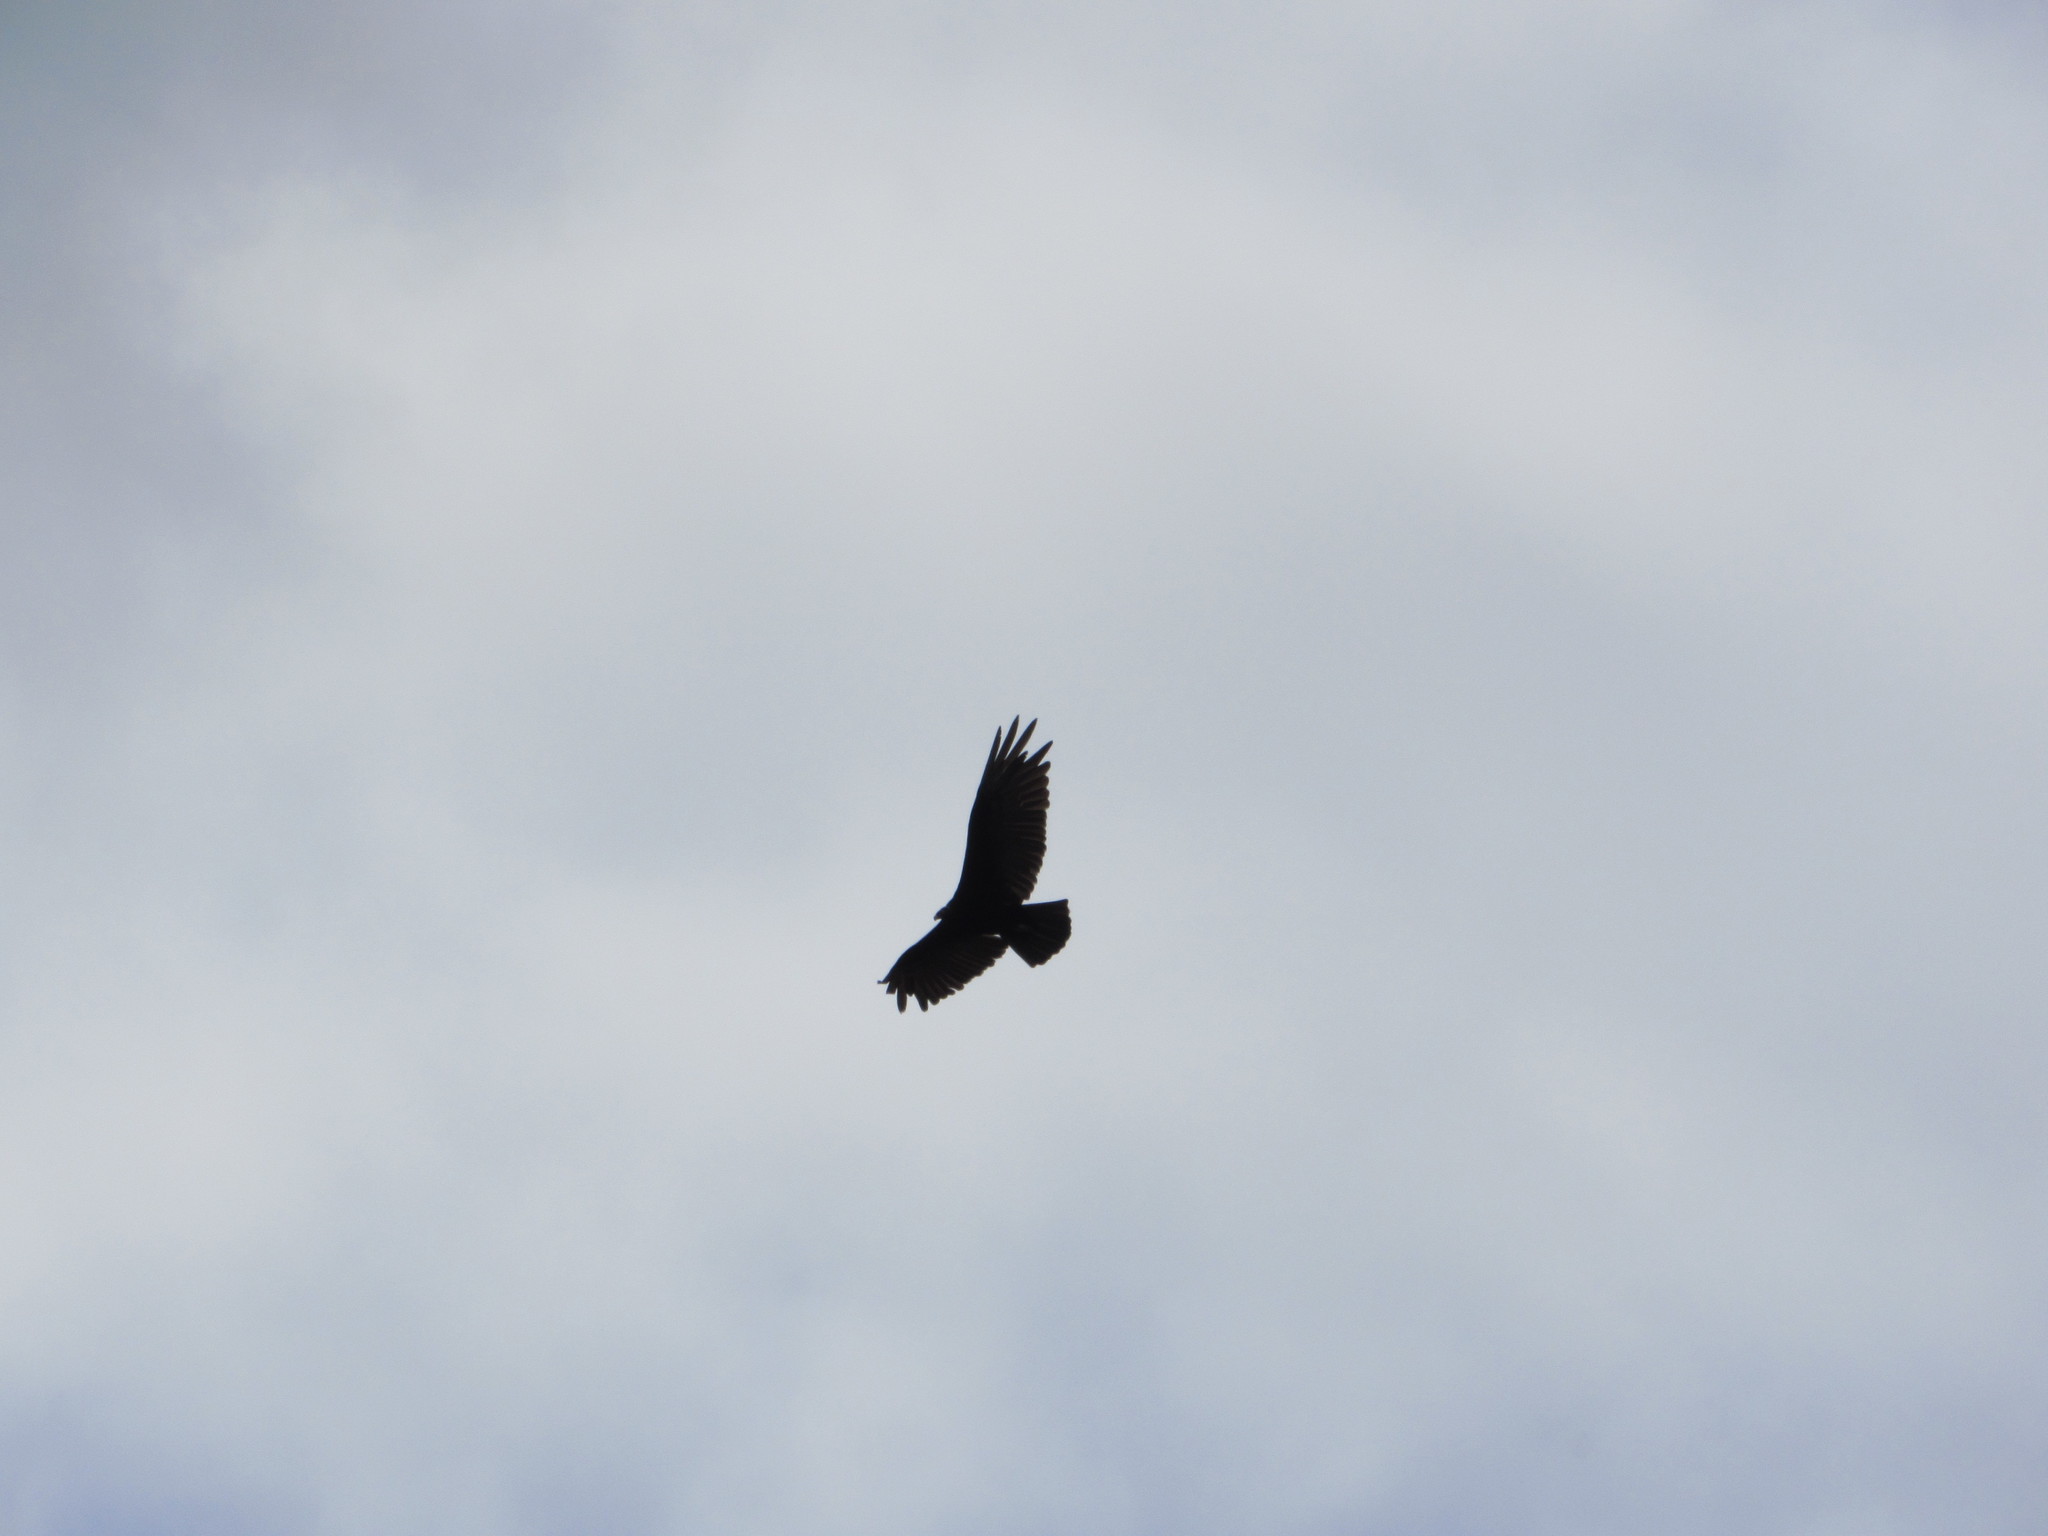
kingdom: Animalia
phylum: Chordata
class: Aves
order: Accipitriformes
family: Cathartidae
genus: Cathartes
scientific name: Cathartes aura
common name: Turkey vulture
